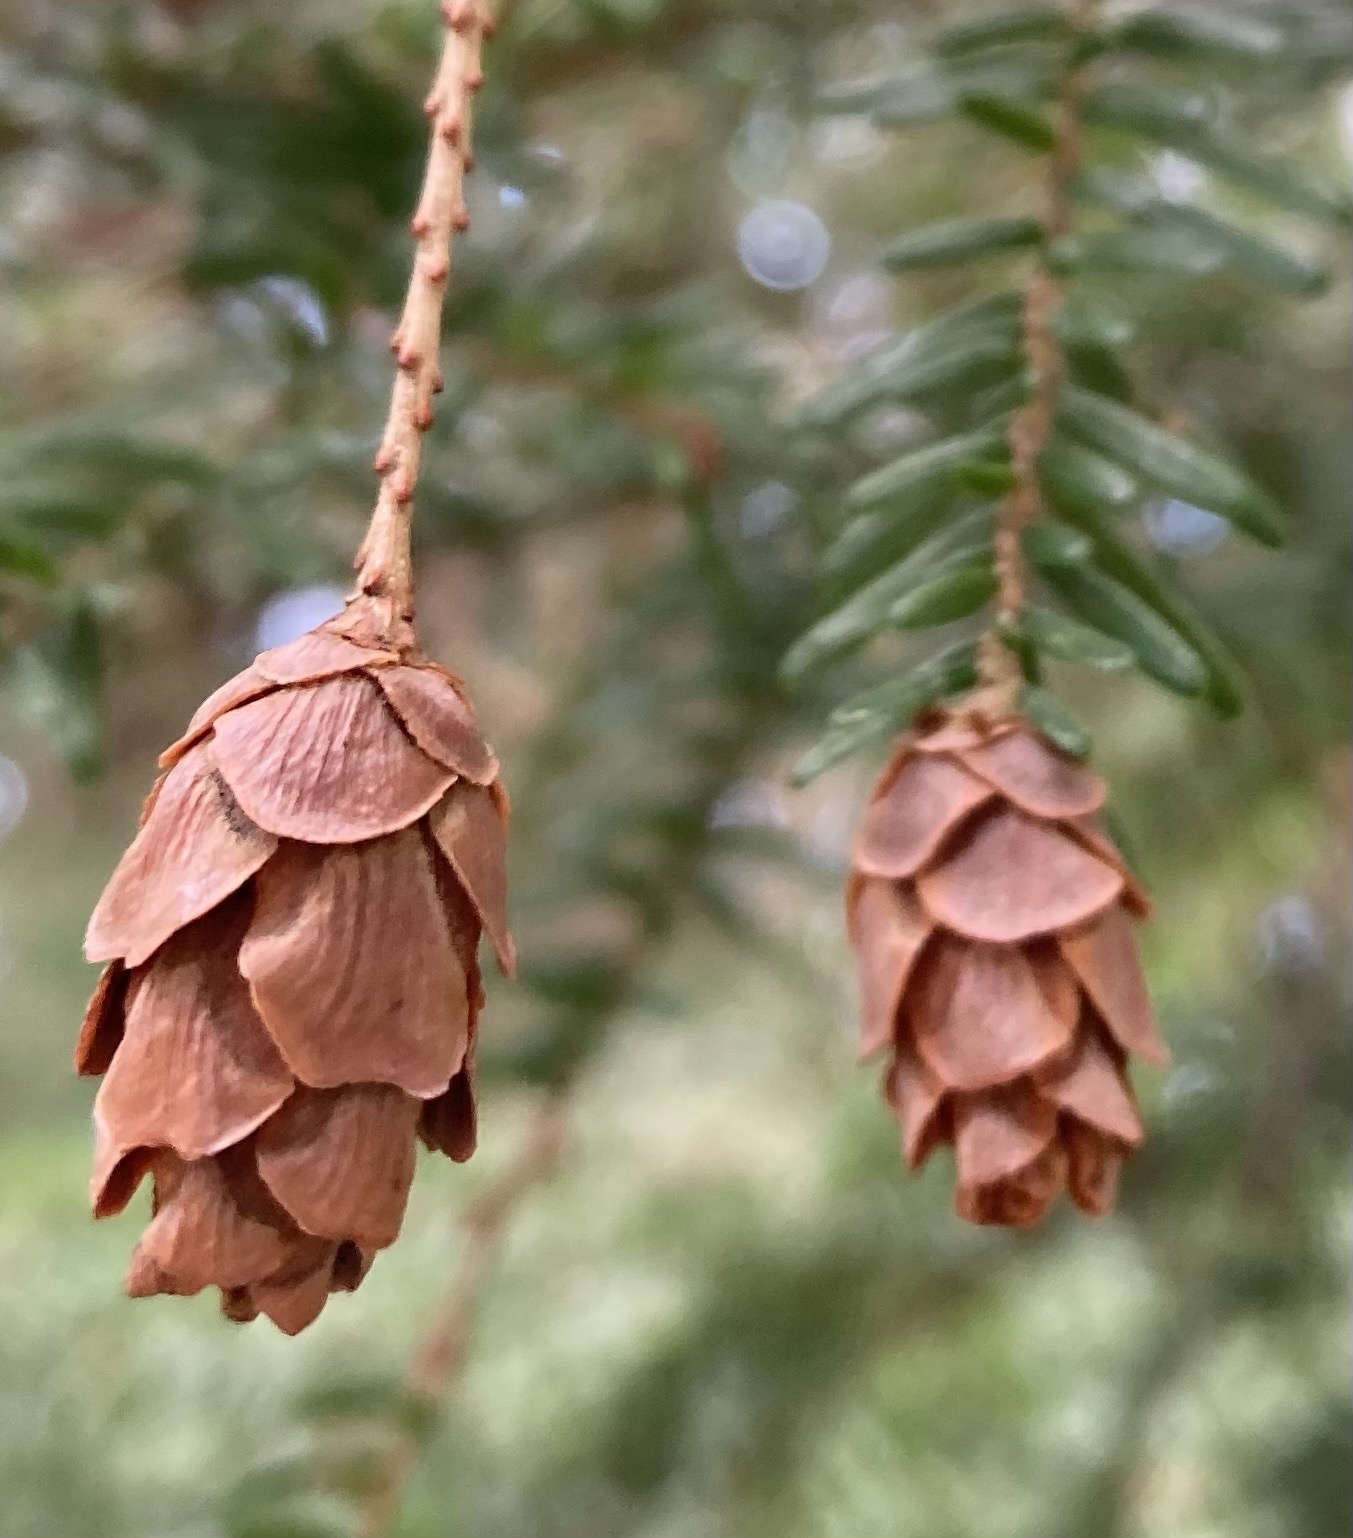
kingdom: Plantae
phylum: Tracheophyta
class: Pinopsida
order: Pinales
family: Pinaceae
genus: Tsuga
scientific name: Tsuga heterophylla
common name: Western hemlock
